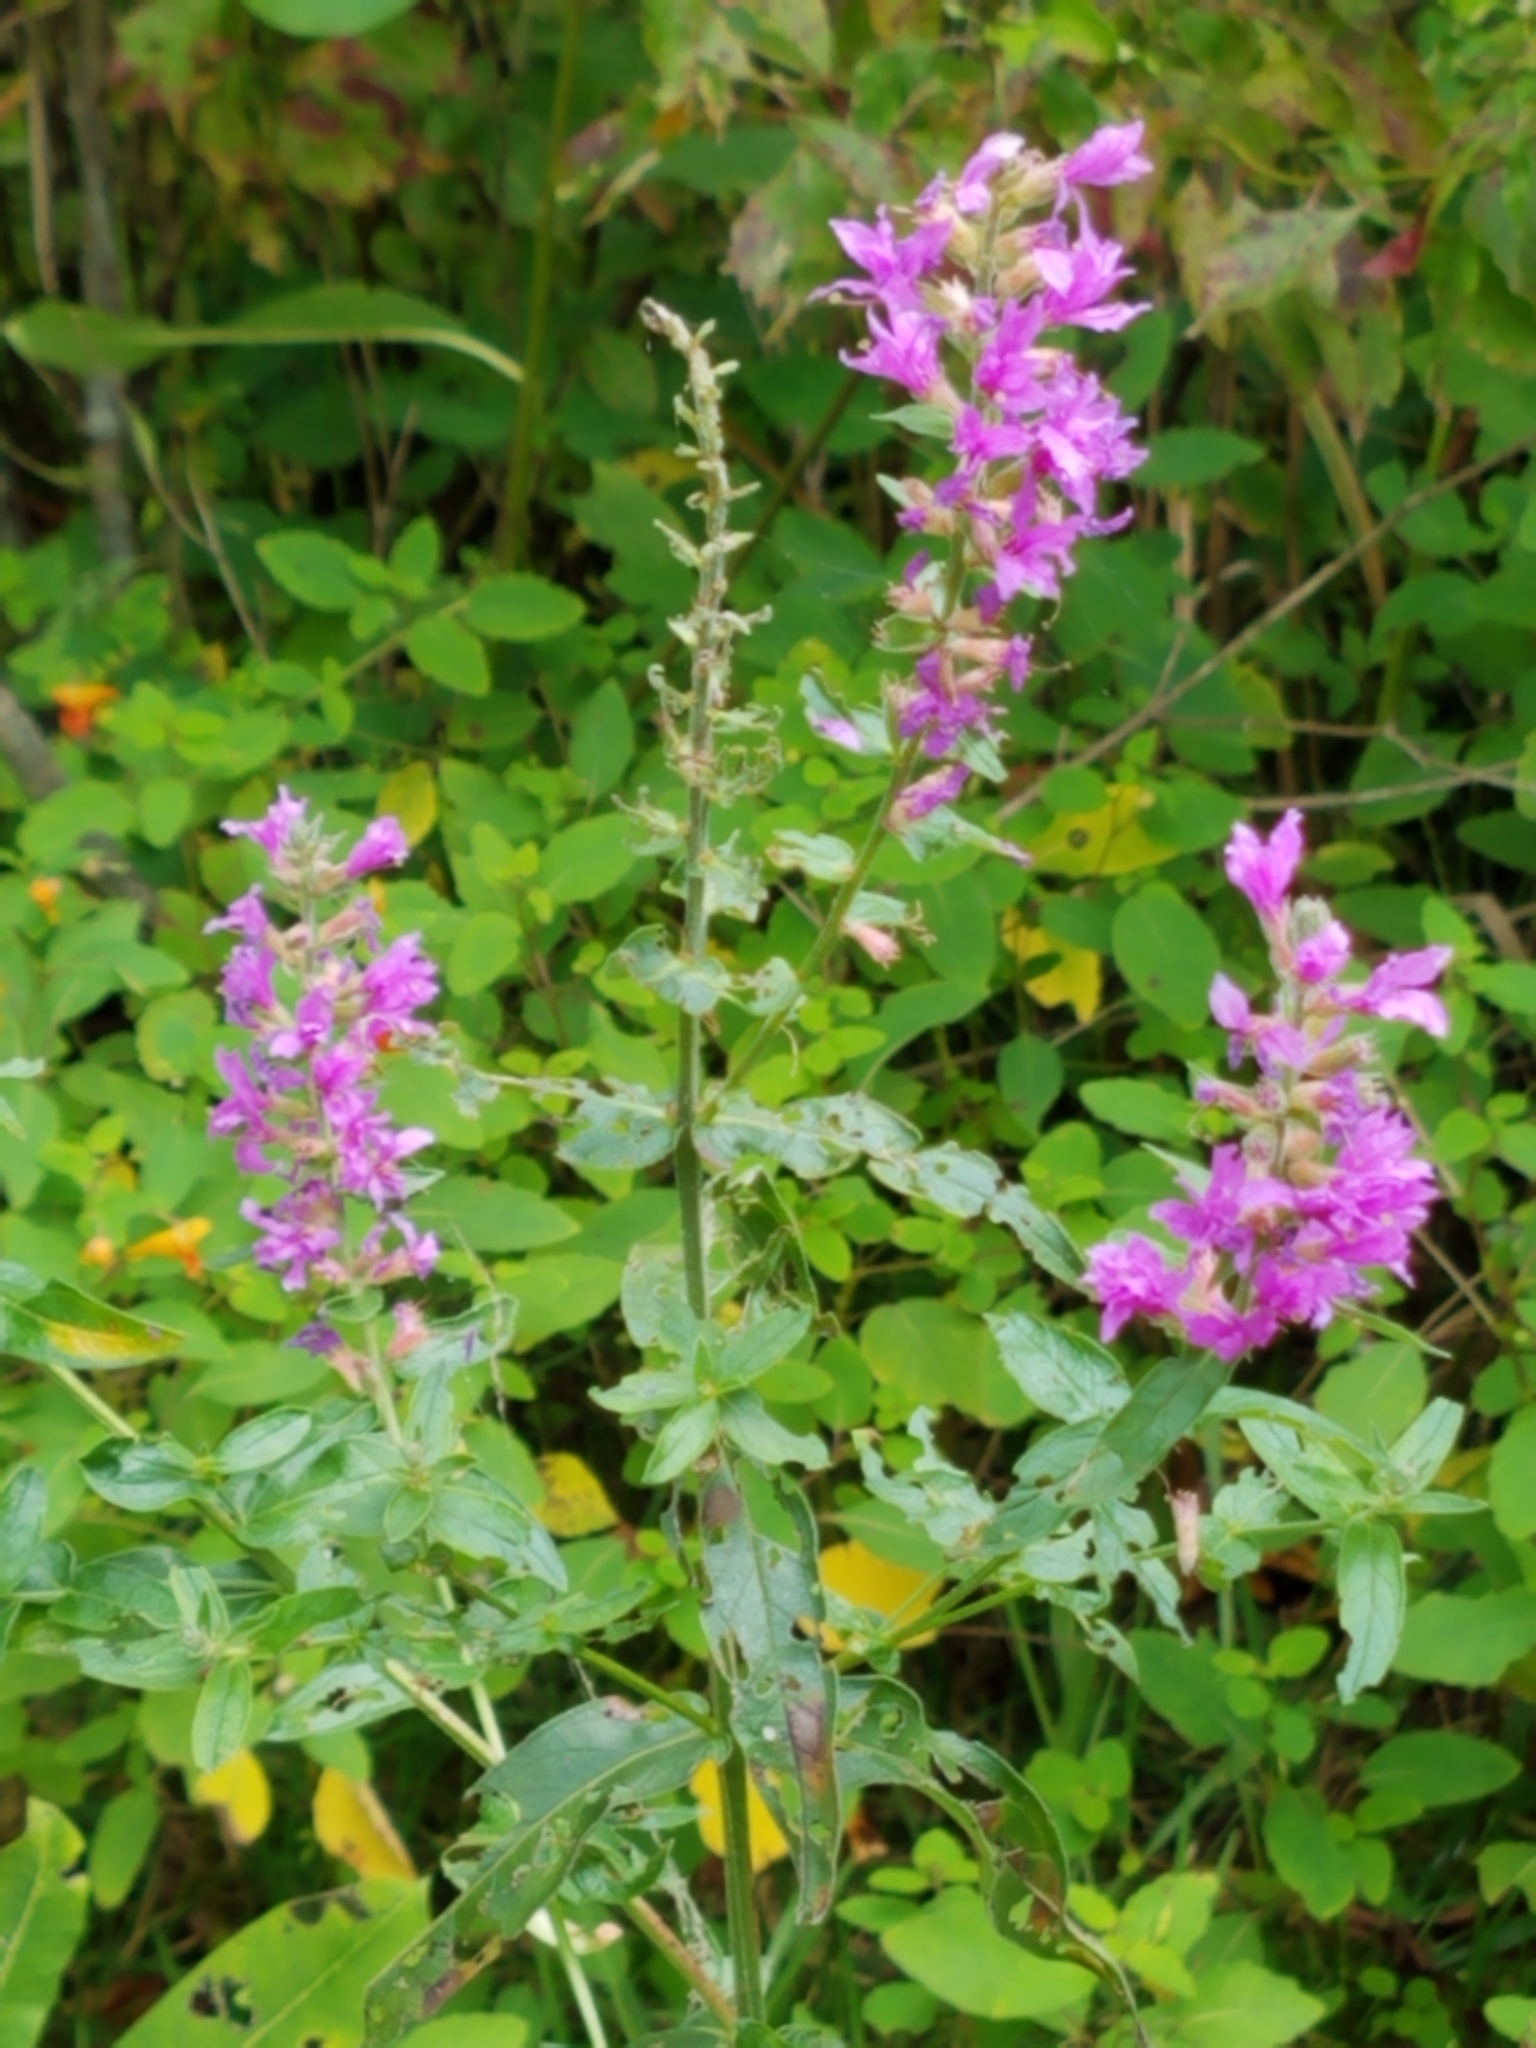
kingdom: Plantae
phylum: Tracheophyta
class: Magnoliopsida
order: Myrtales
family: Lythraceae
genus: Lythrum
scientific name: Lythrum salicaria
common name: Purple loosestrife
